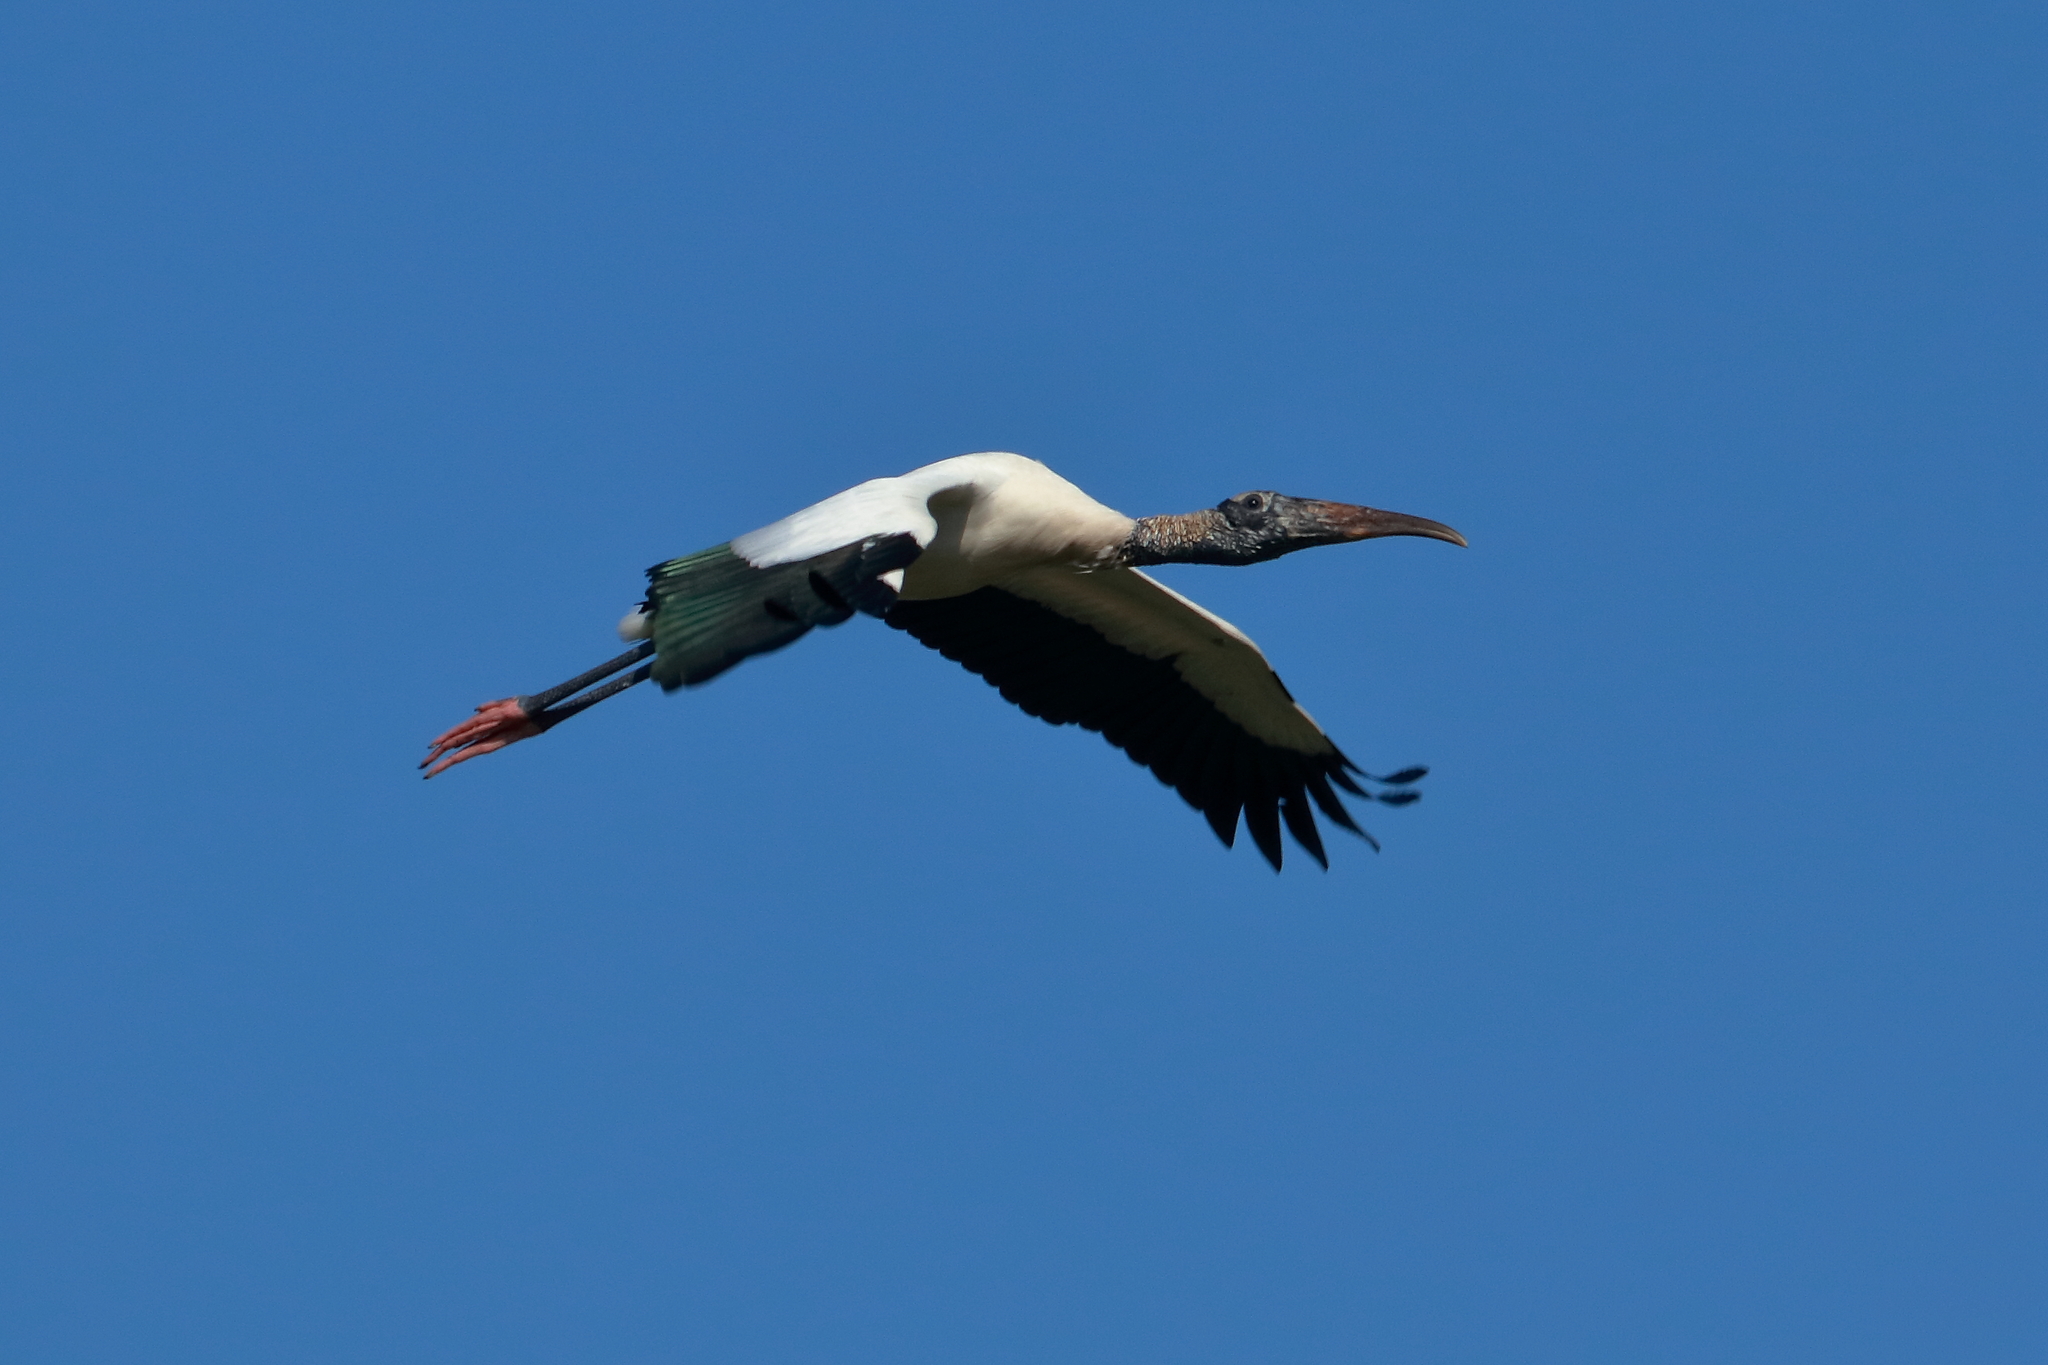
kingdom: Animalia
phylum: Chordata
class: Aves
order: Ciconiiformes
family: Ciconiidae
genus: Mycteria
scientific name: Mycteria americana
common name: Wood stork
